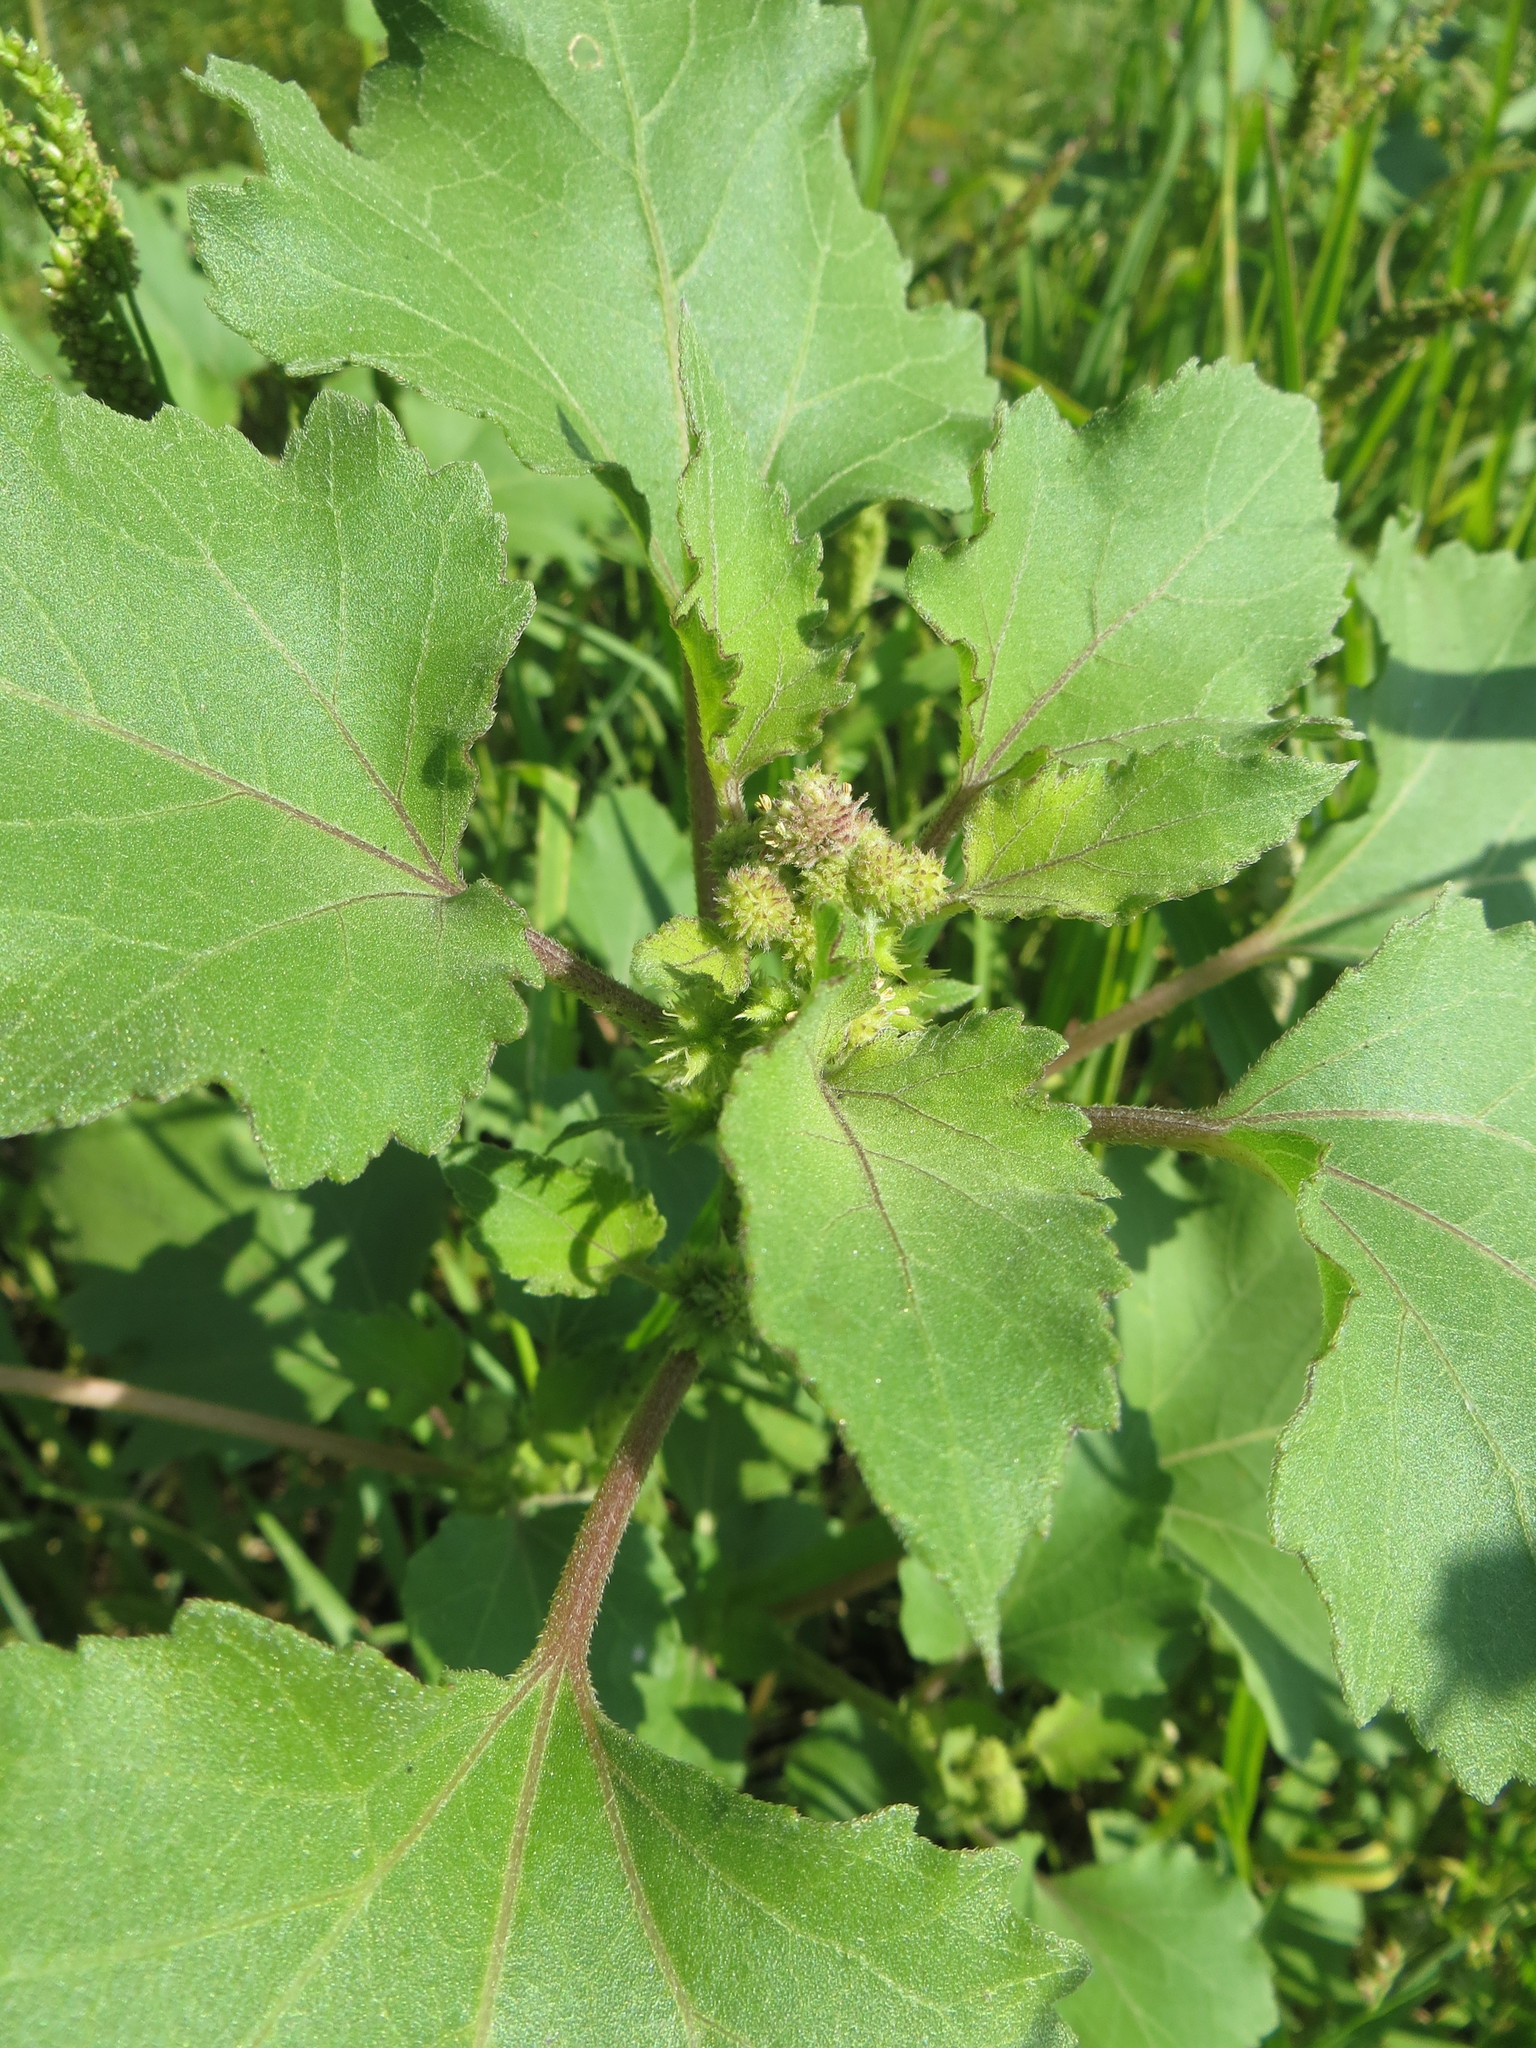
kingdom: Plantae
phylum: Tracheophyta
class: Magnoliopsida
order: Asterales
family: Asteraceae
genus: Xanthium
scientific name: Xanthium orientale
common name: Californian burr
